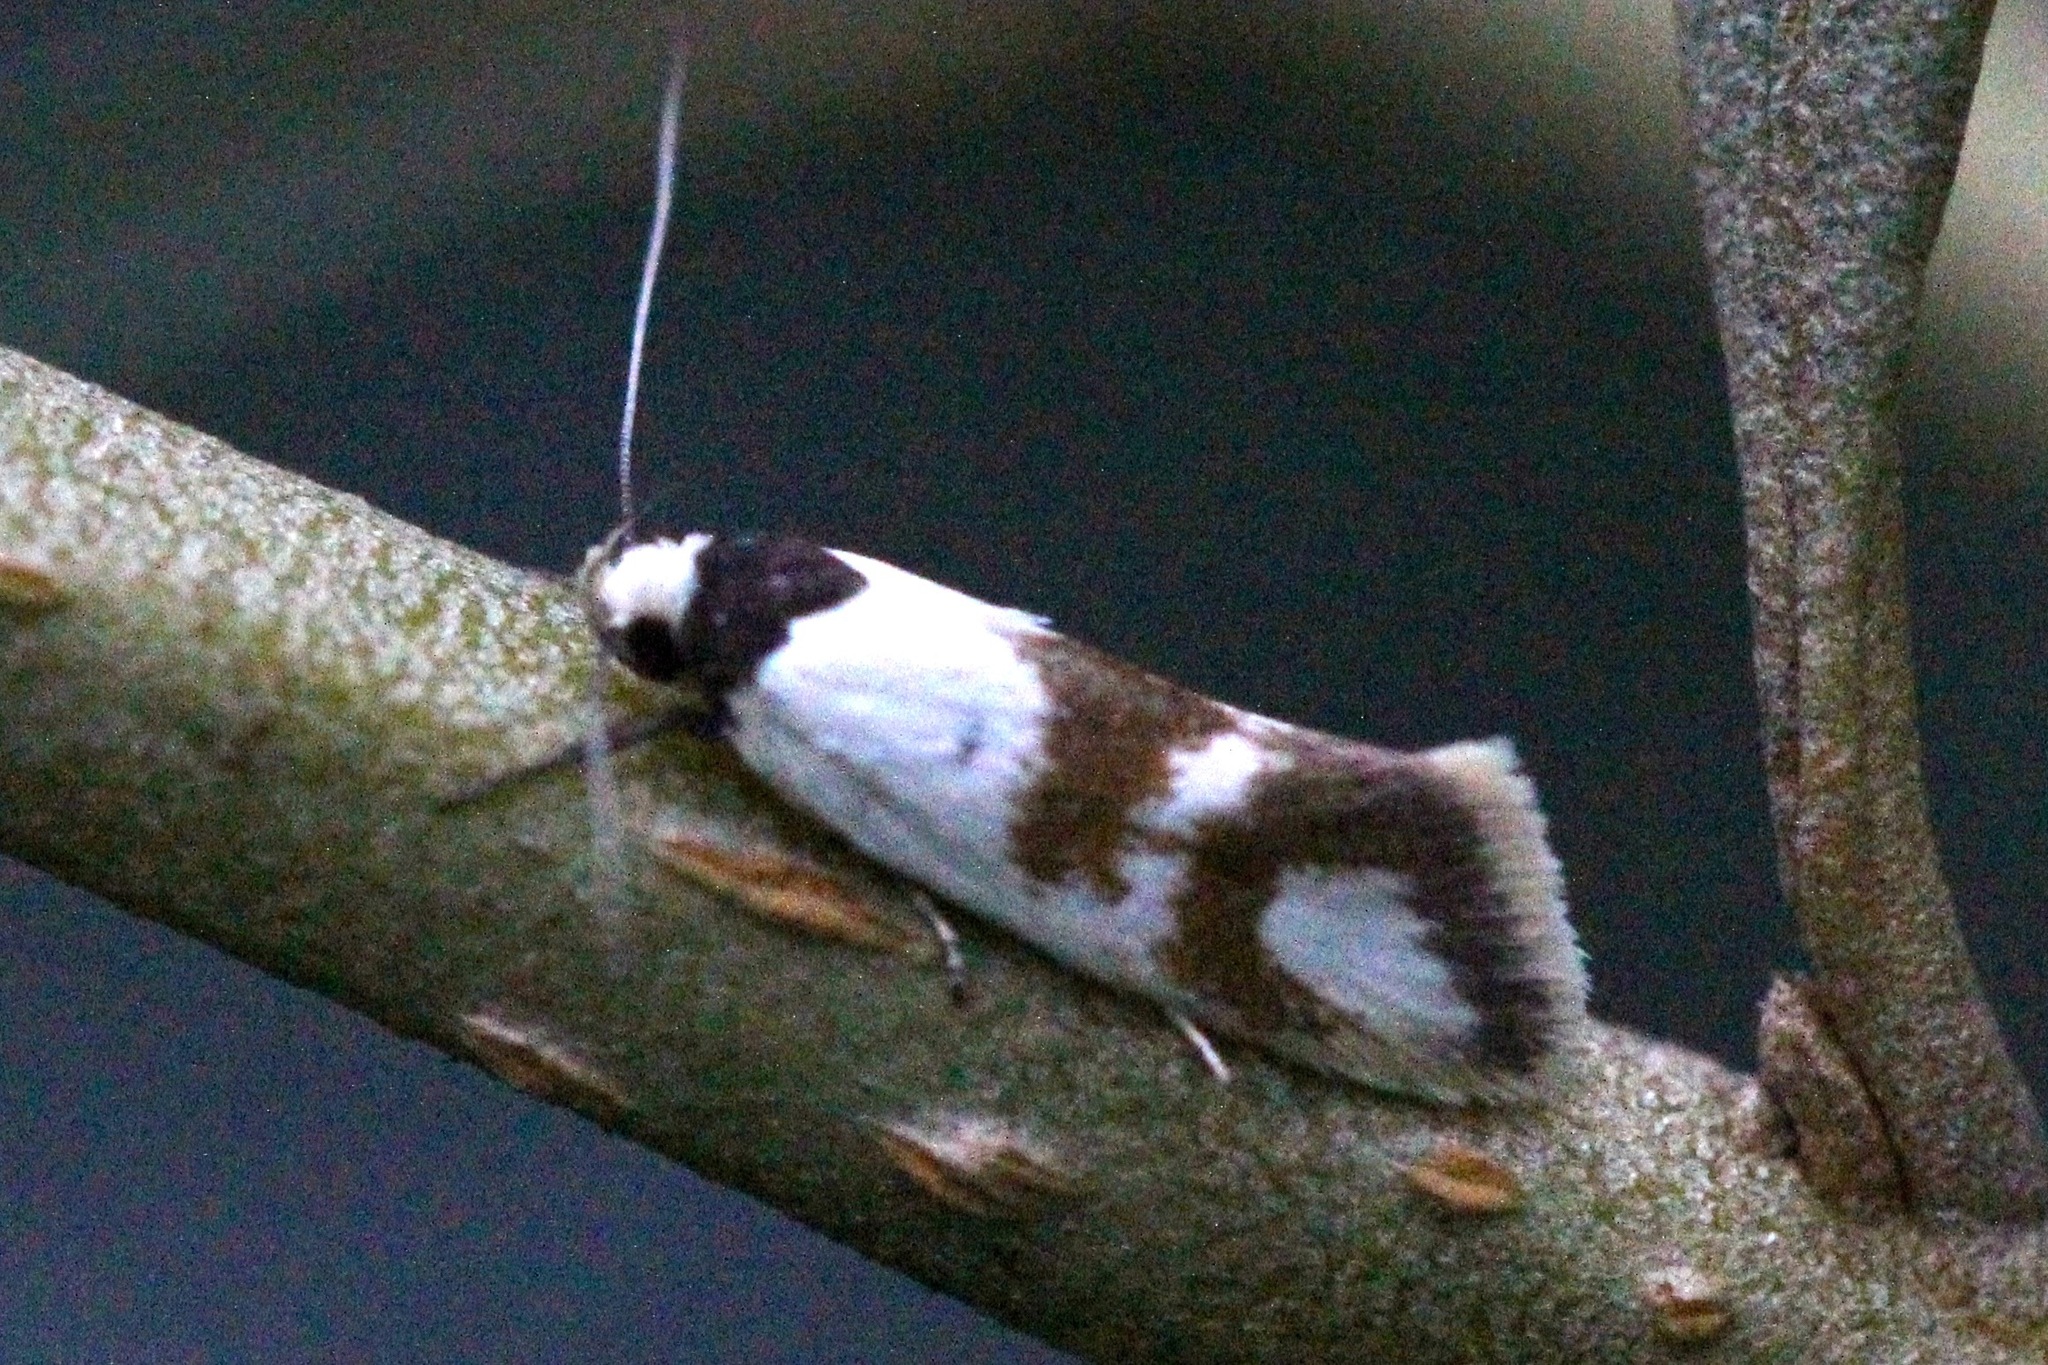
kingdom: Animalia
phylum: Arthropoda
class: Insecta
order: Lepidoptera
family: Oecophoridae
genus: Antipterna
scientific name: Antipterna trilicella
